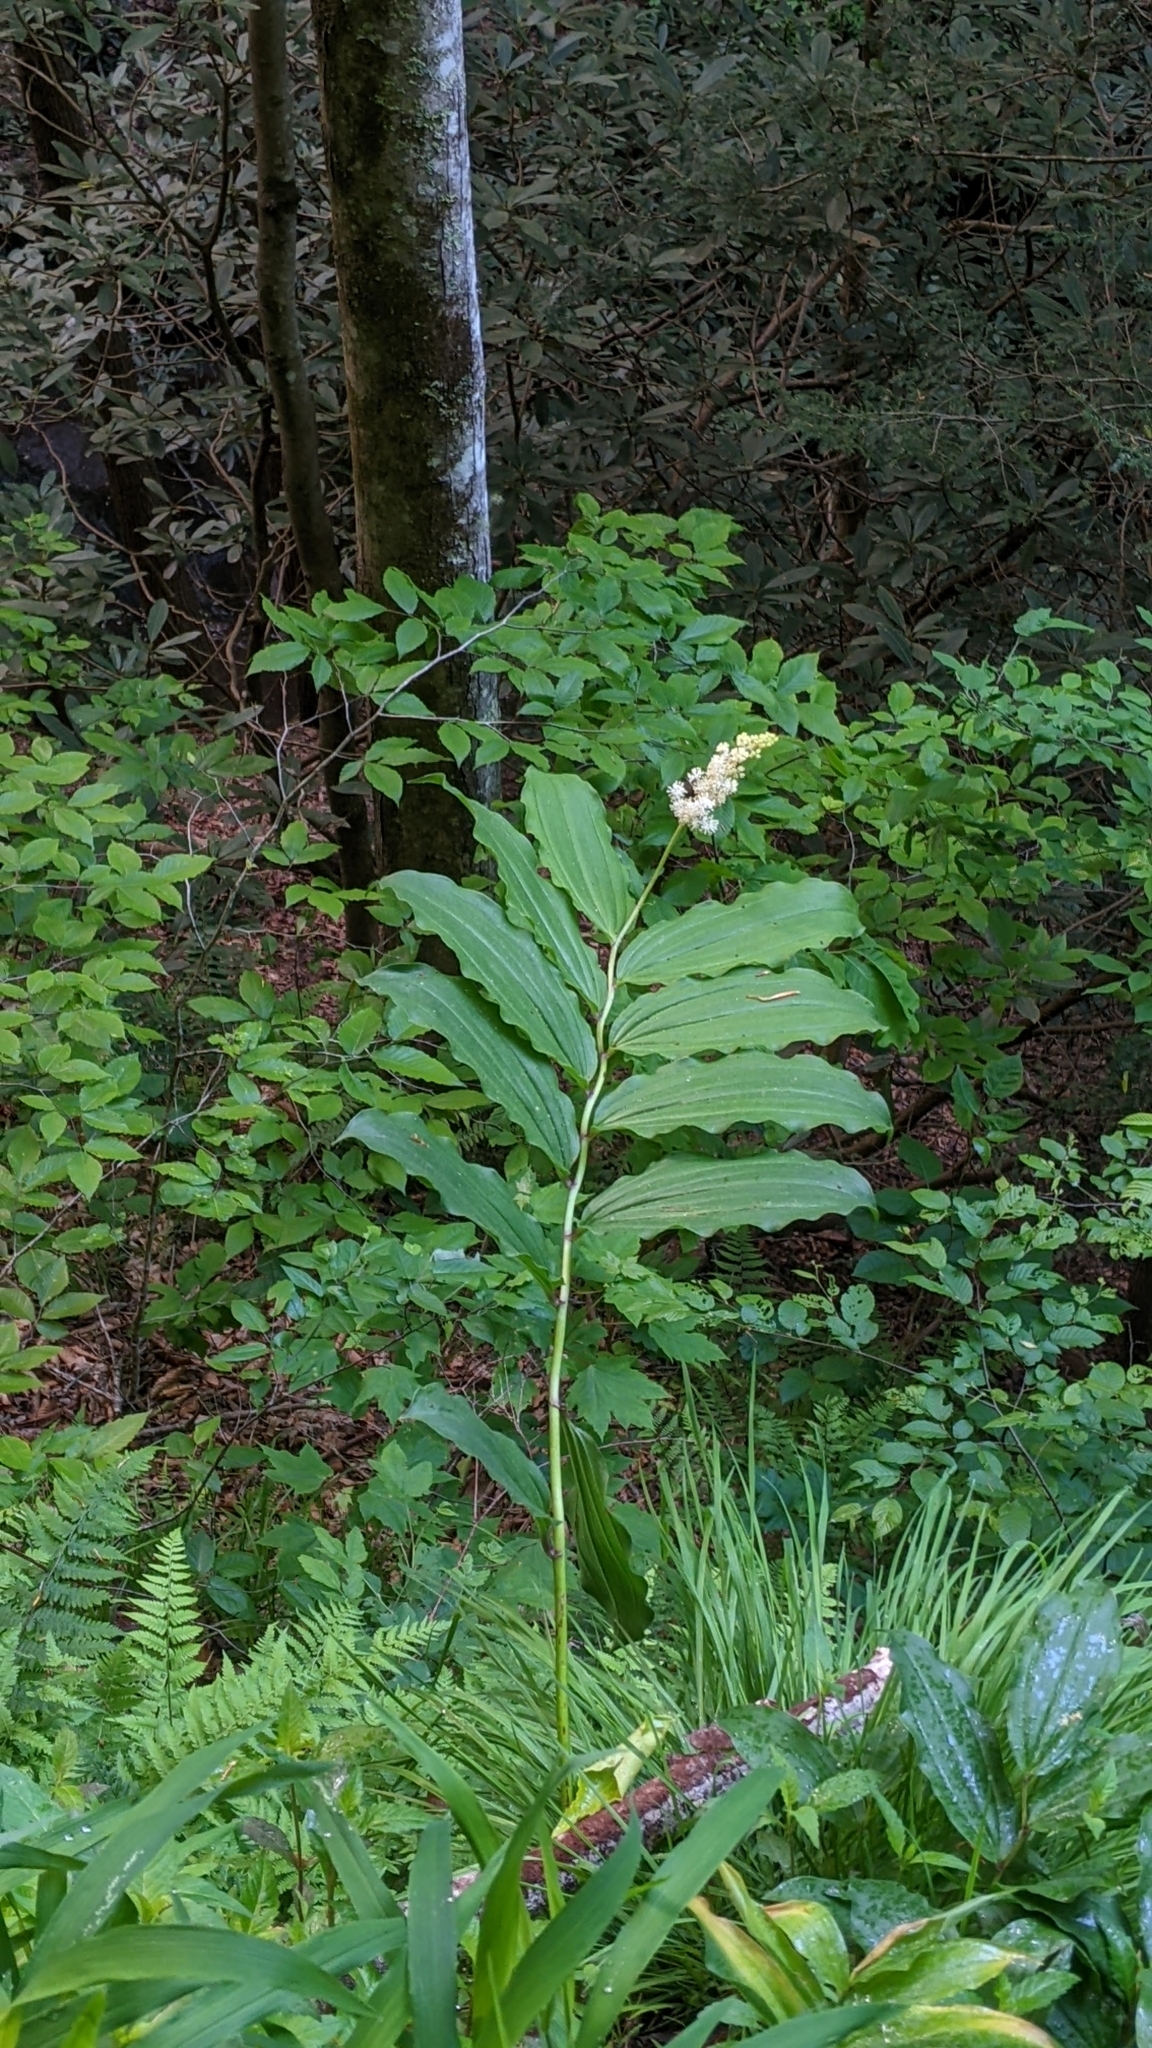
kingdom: Plantae
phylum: Tracheophyta
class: Liliopsida
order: Asparagales
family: Asparagaceae
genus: Maianthemum
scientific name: Maianthemum racemosum
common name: False spikenard
